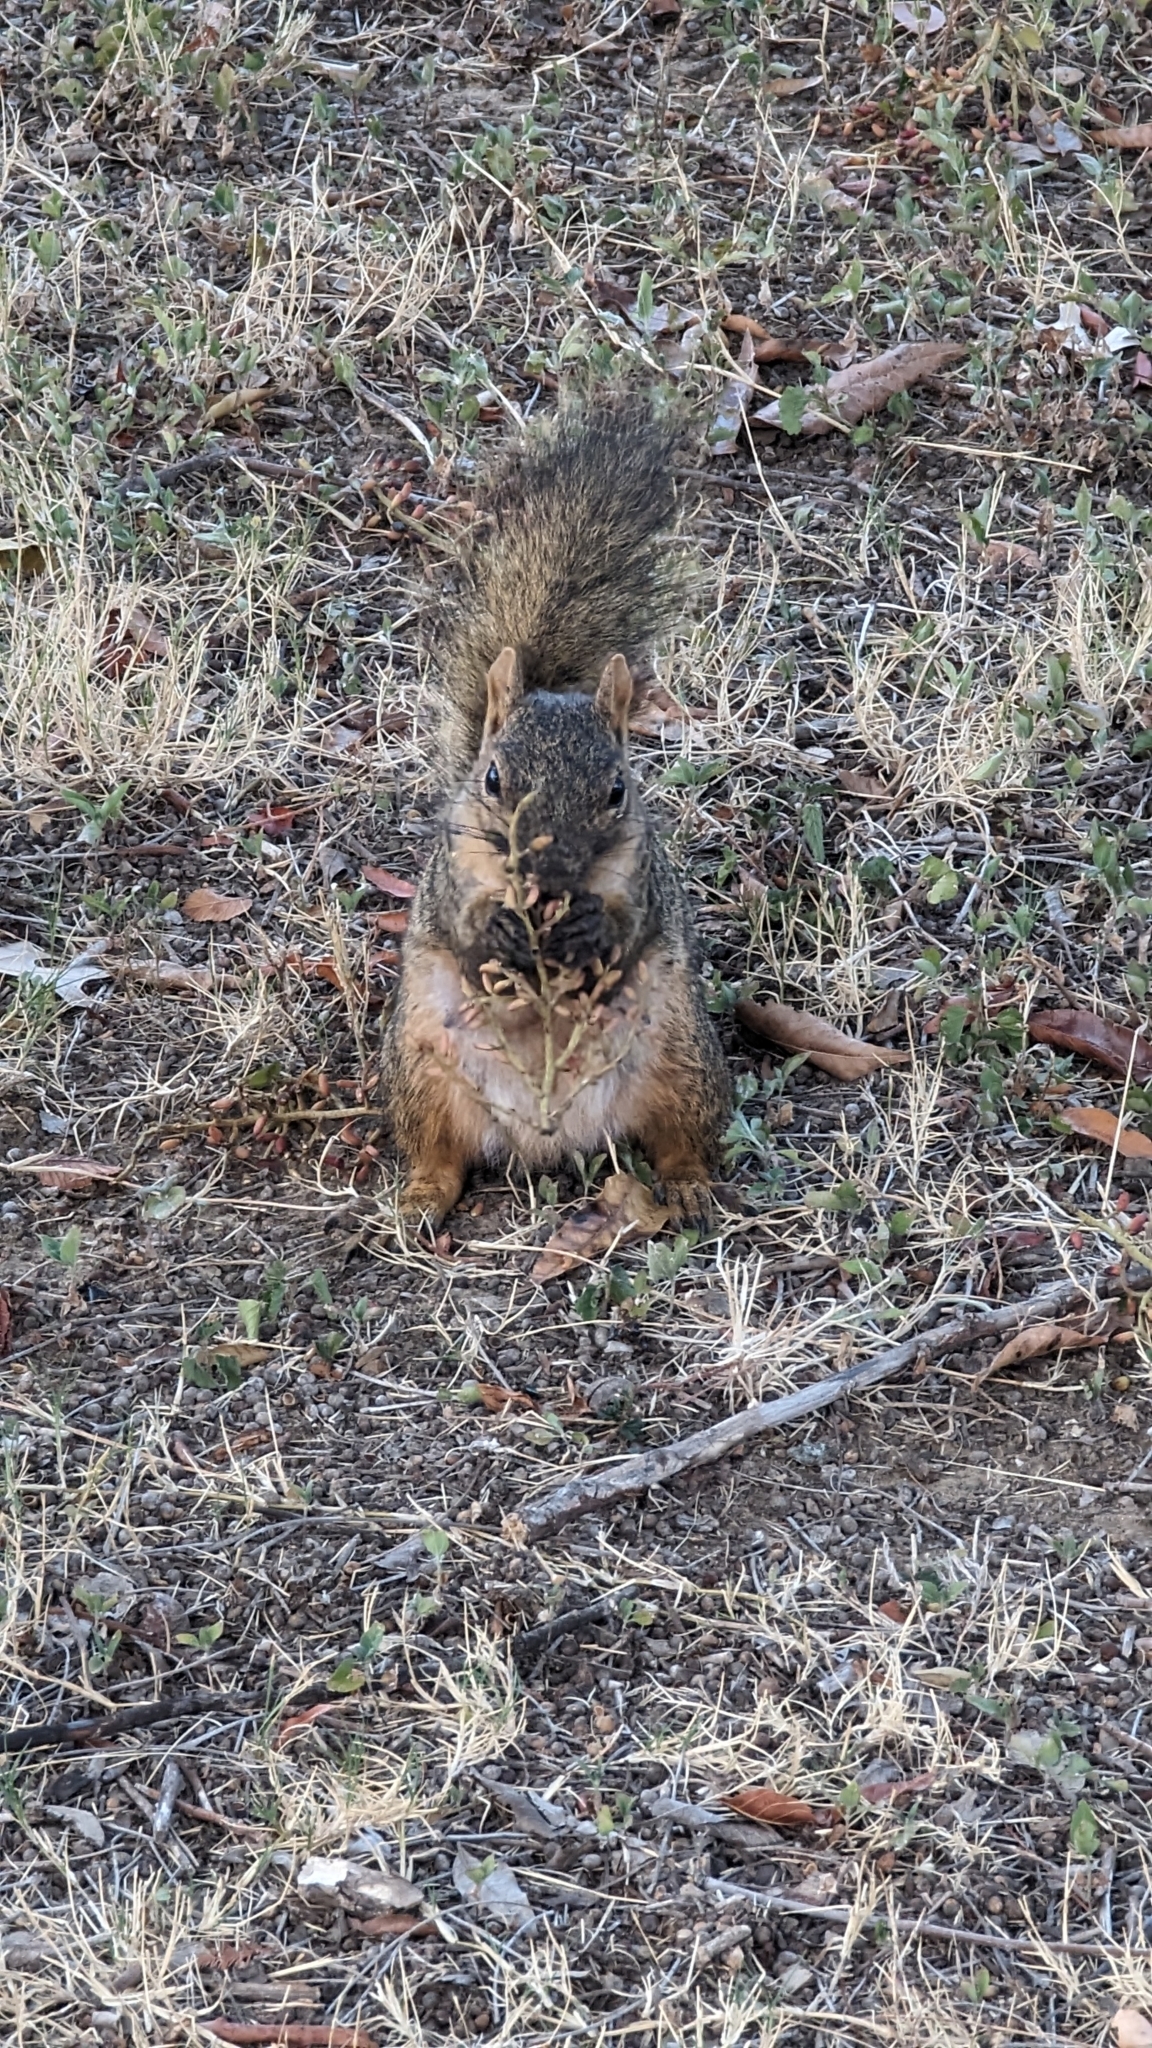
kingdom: Animalia
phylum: Chordata
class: Mammalia
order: Rodentia
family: Sciuridae
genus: Sciurus
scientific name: Sciurus niger
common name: Fox squirrel
